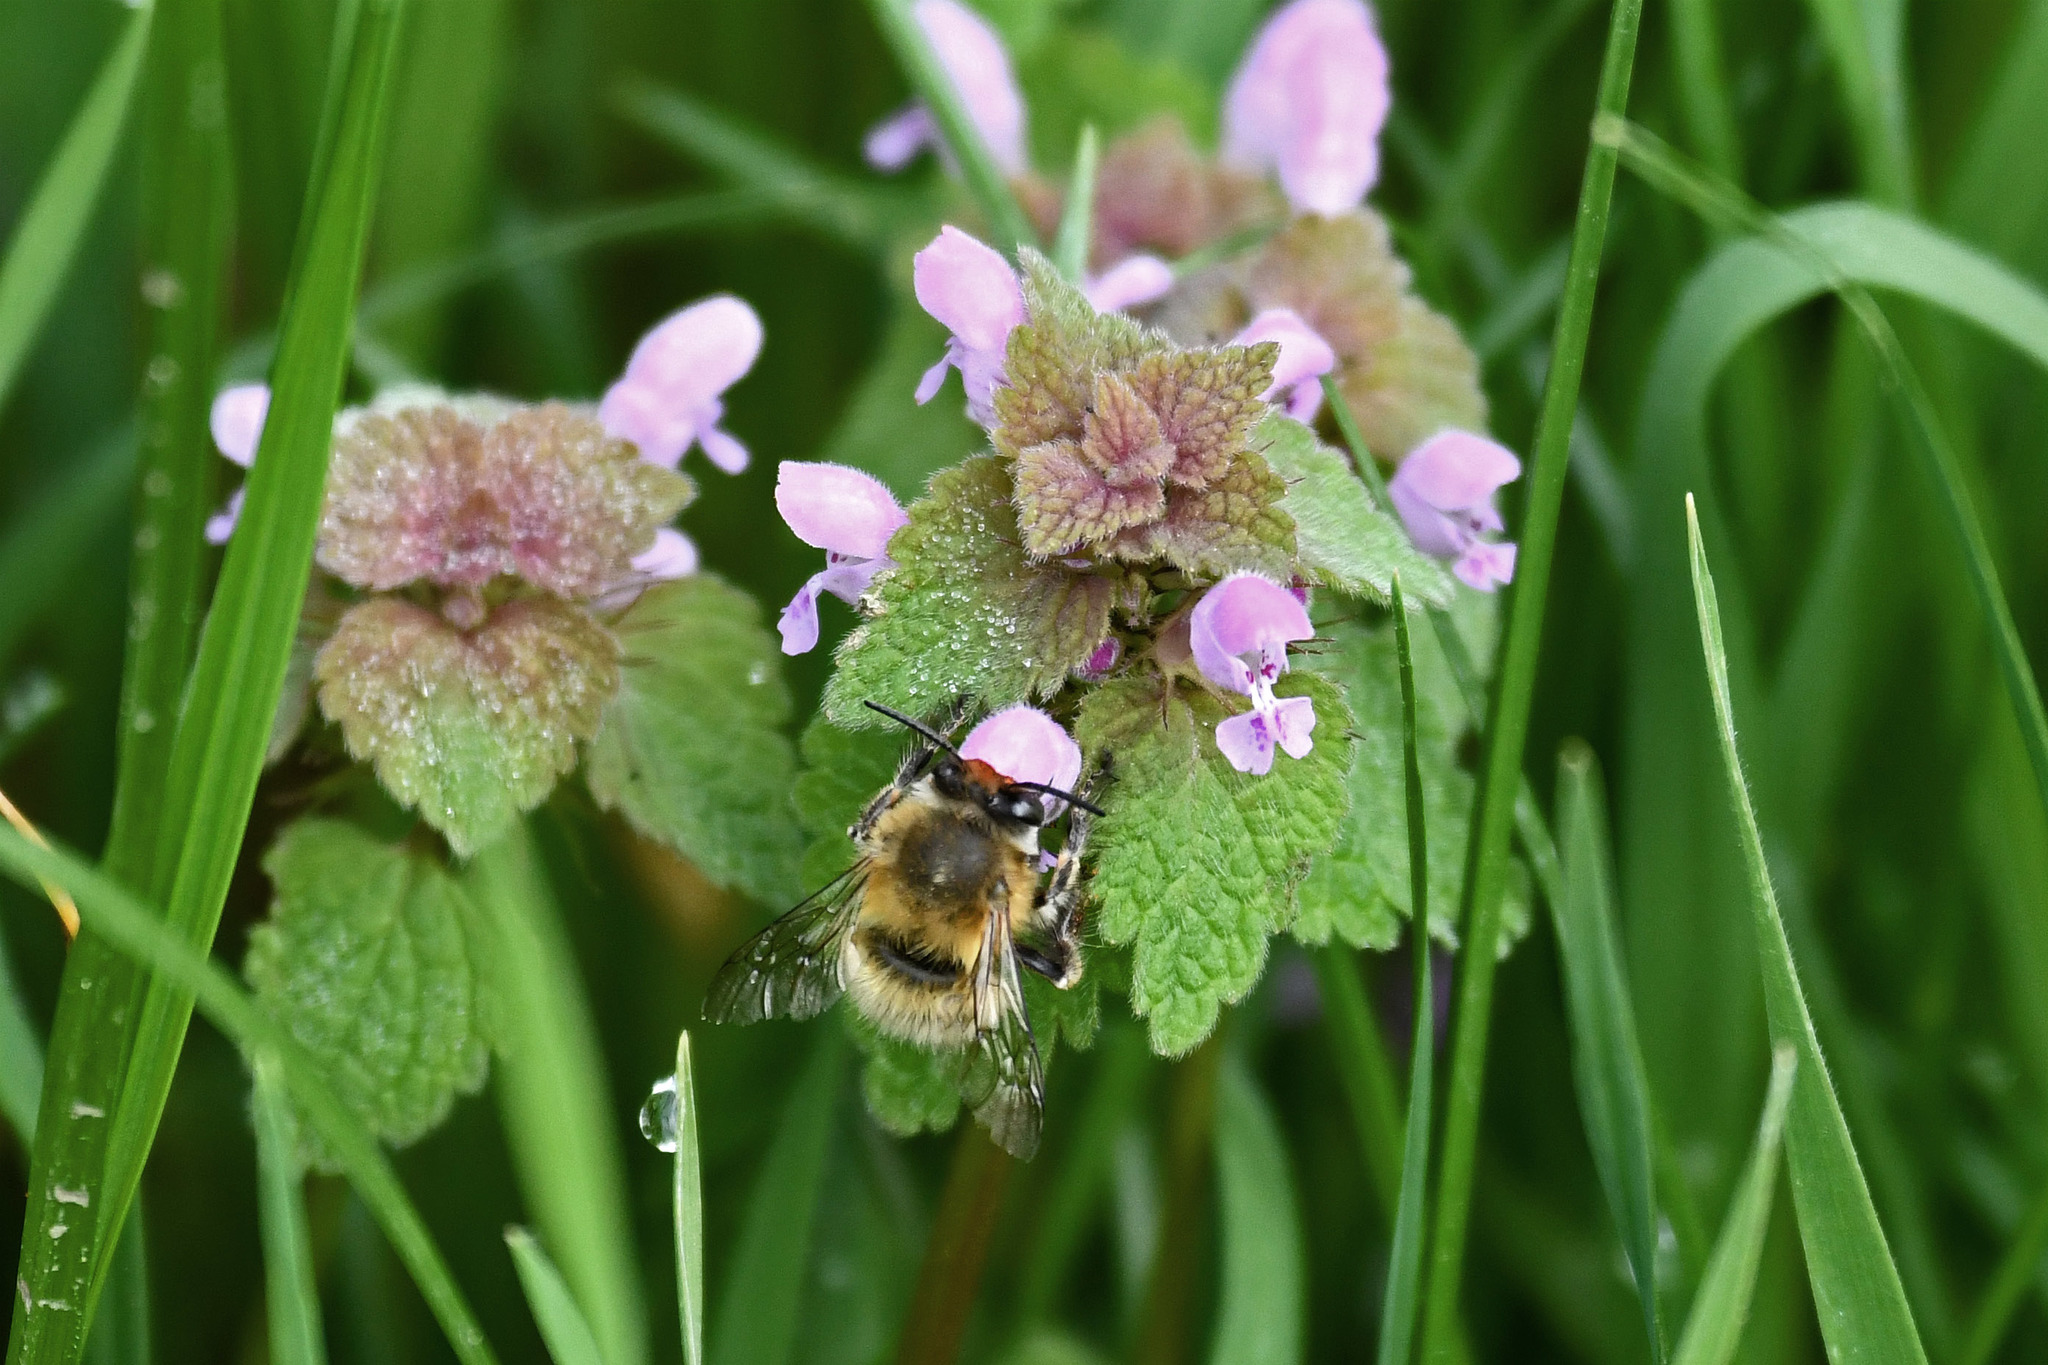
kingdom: Animalia
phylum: Arthropoda
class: Insecta
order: Hymenoptera
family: Apidae
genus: Anthophora
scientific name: Anthophora plumipes
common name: Hairy-footed flower bee
